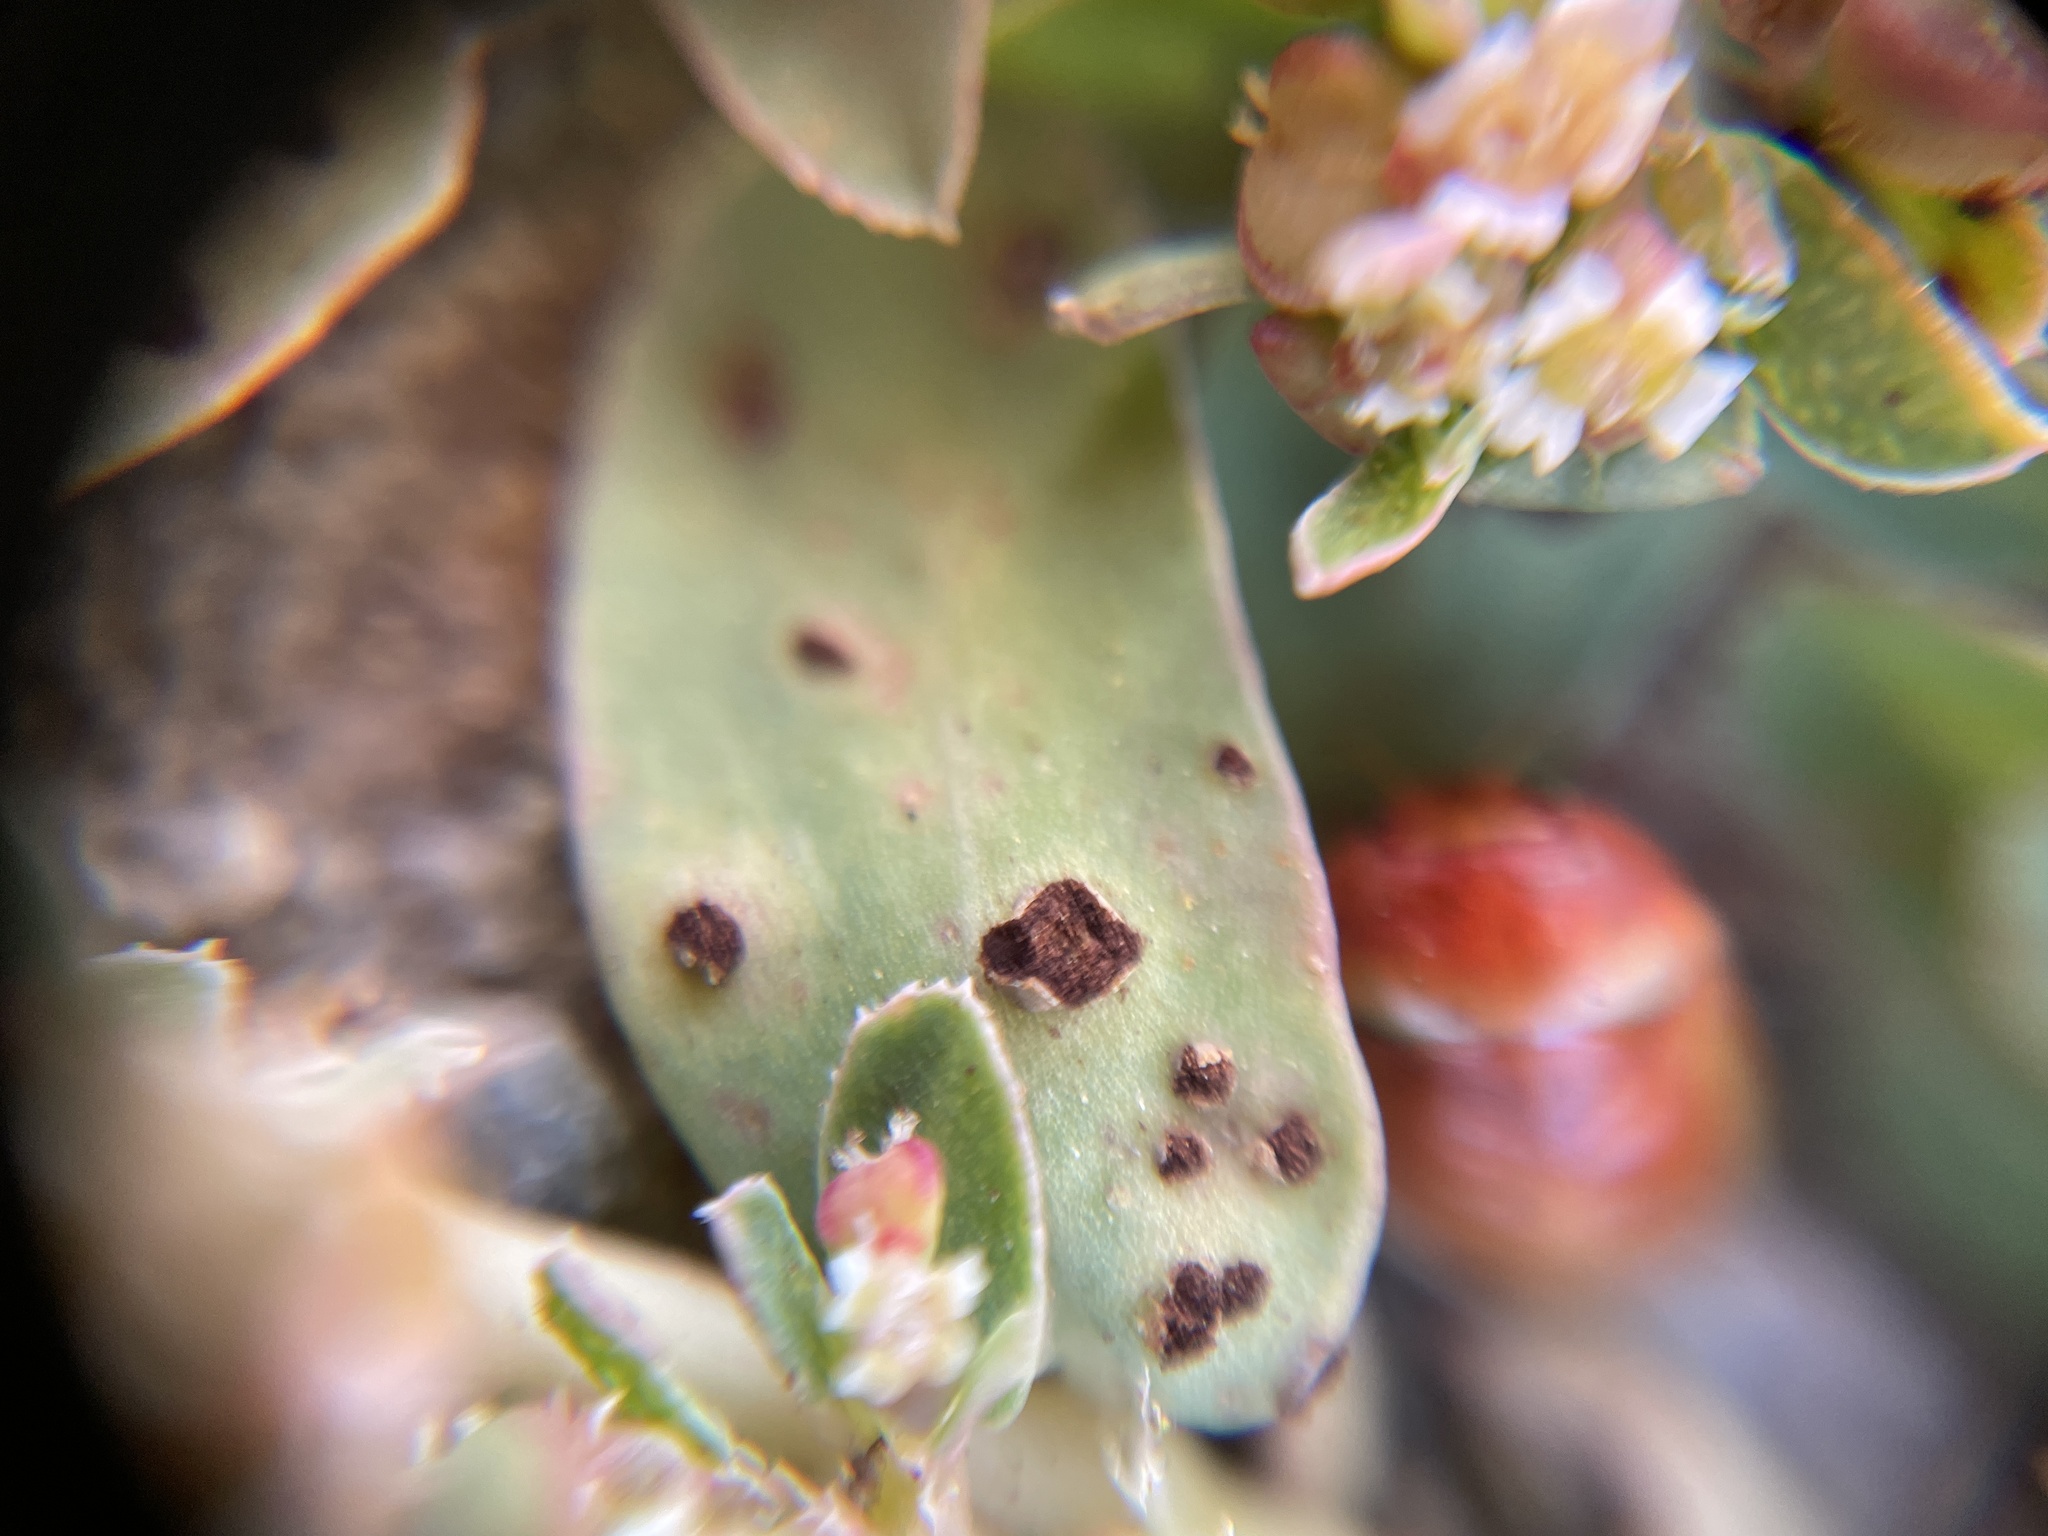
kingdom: Fungi
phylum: Basidiomycota
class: Pucciniomycetes
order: Pucciniales
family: Pucciniaceae
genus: Uromyces
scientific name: Uromyces proeminens
